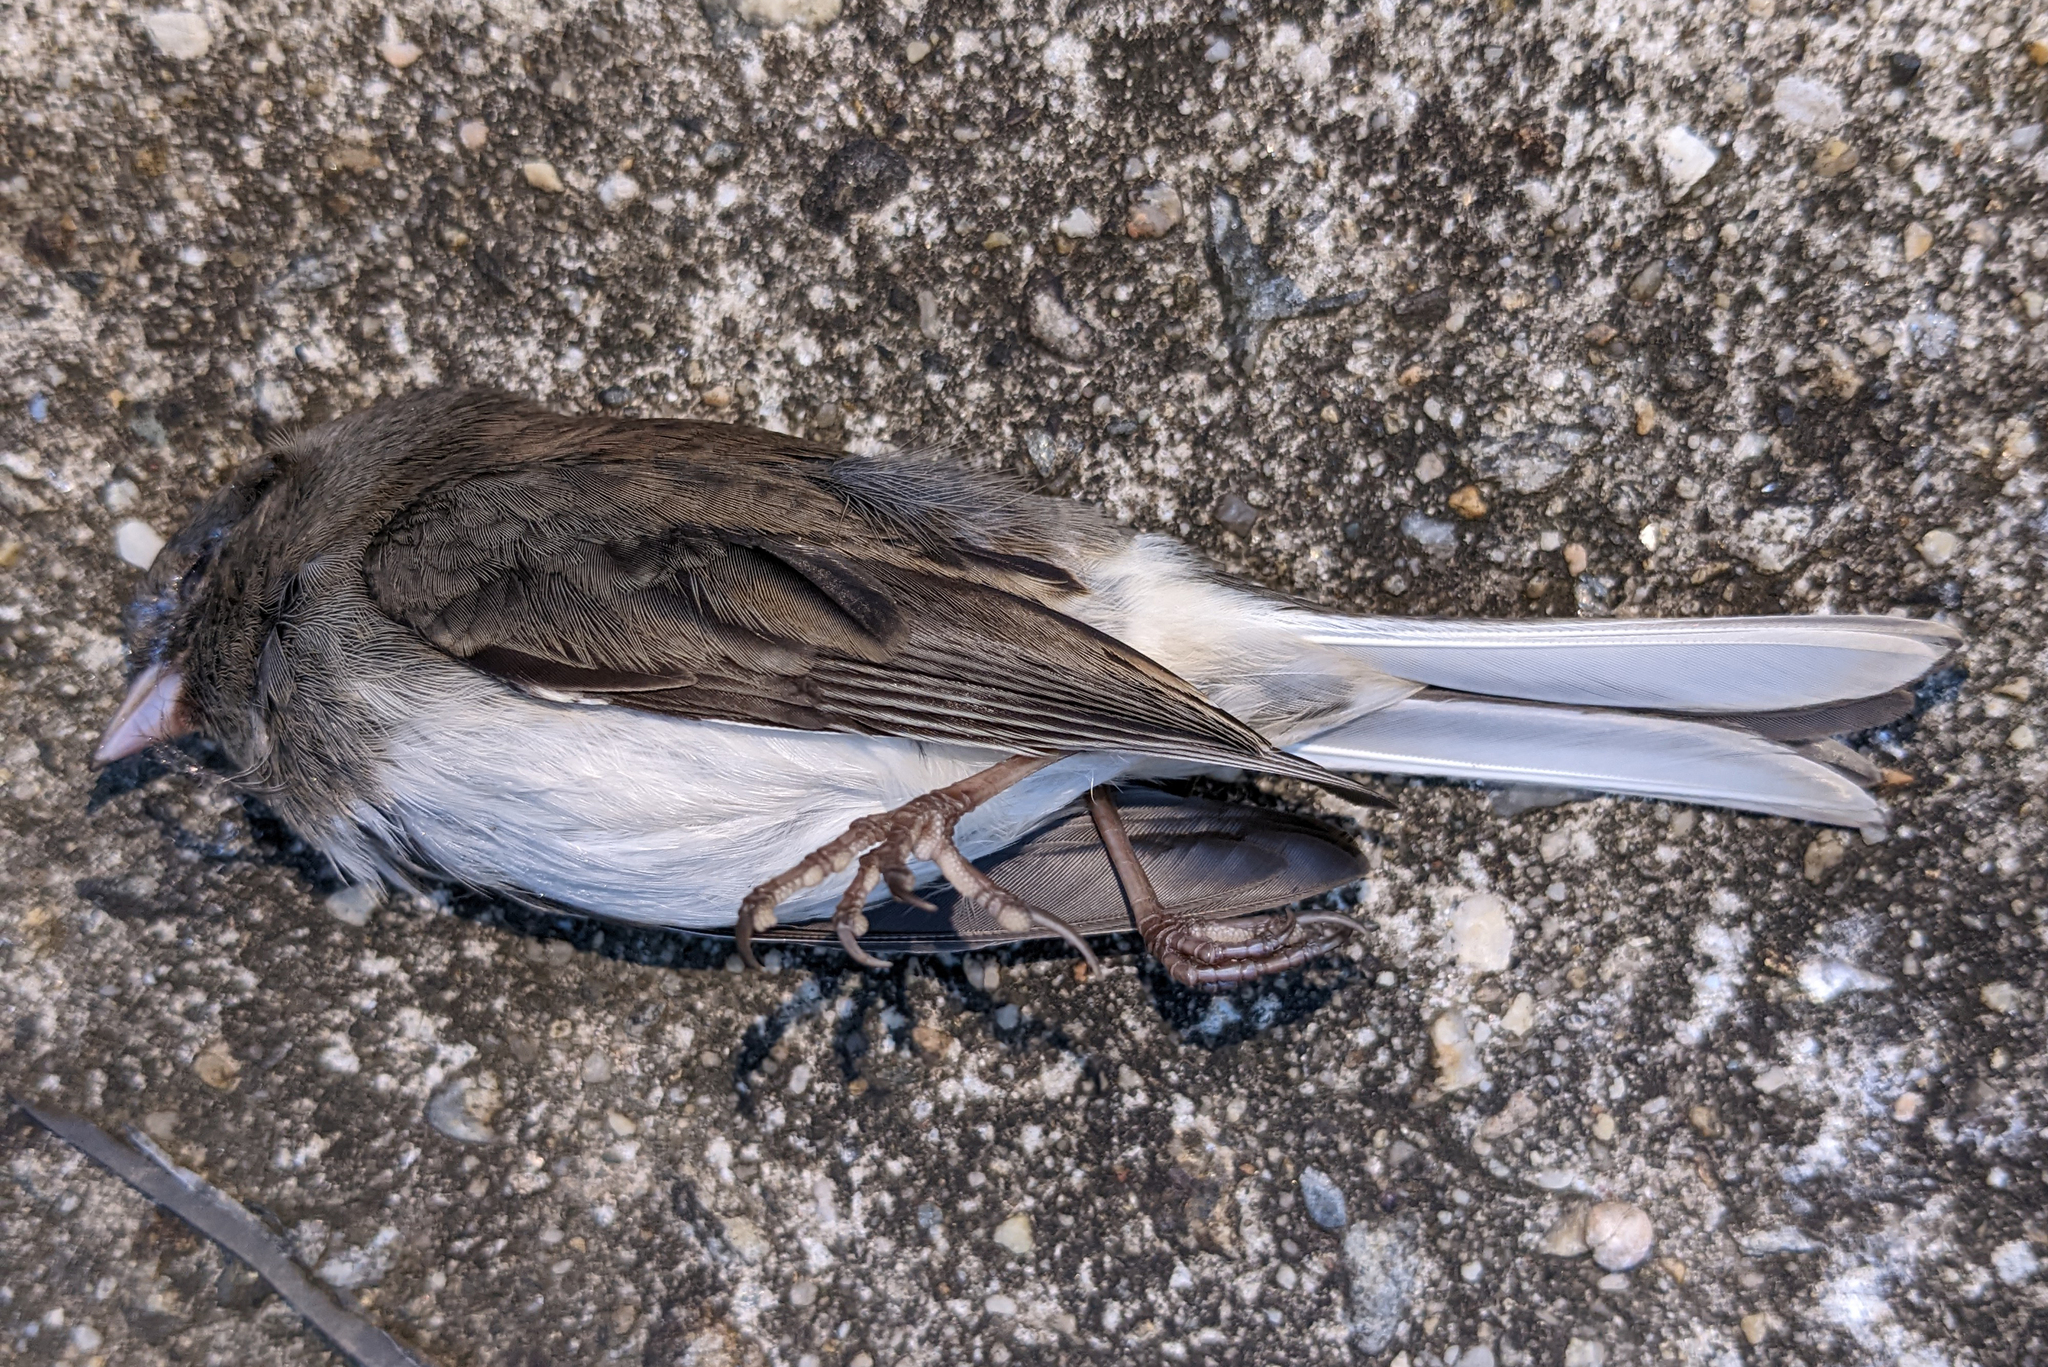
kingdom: Animalia
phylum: Chordata
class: Aves
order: Passeriformes
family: Passerellidae
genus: Junco
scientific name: Junco hyemalis
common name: Dark-eyed junco
